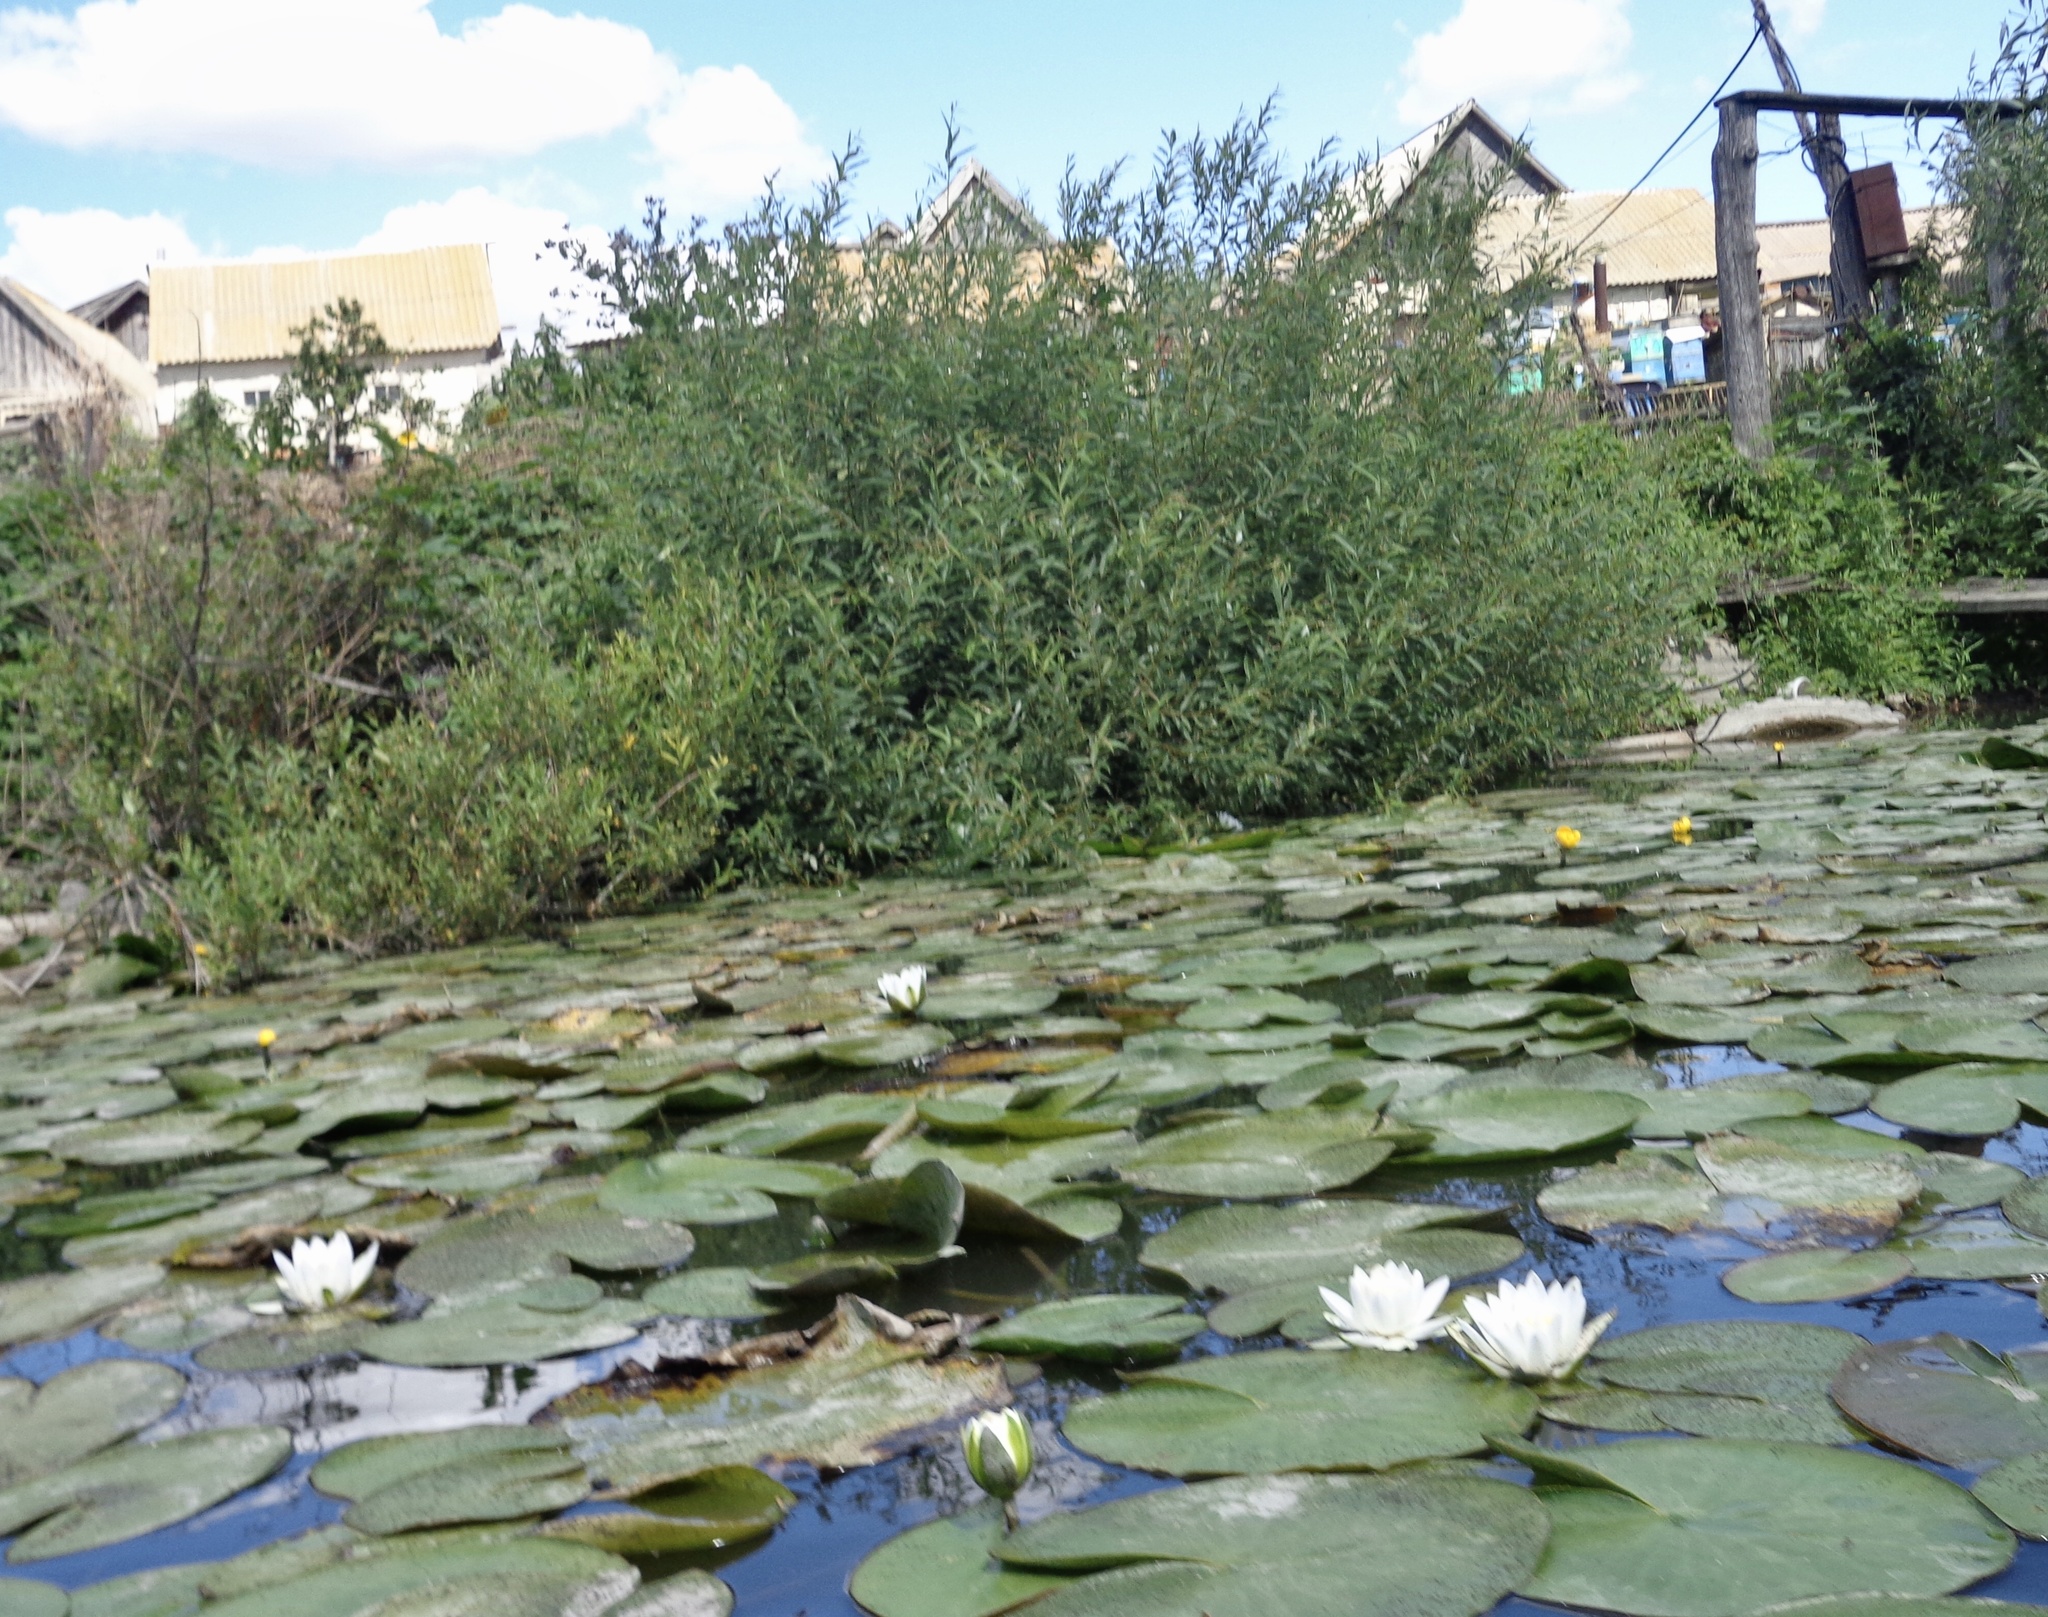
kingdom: Plantae
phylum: Tracheophyta
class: Magnoliopsida
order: Nymphaeales
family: Nymphaeaceae
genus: Nymphaea
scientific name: Nymphaea candida
